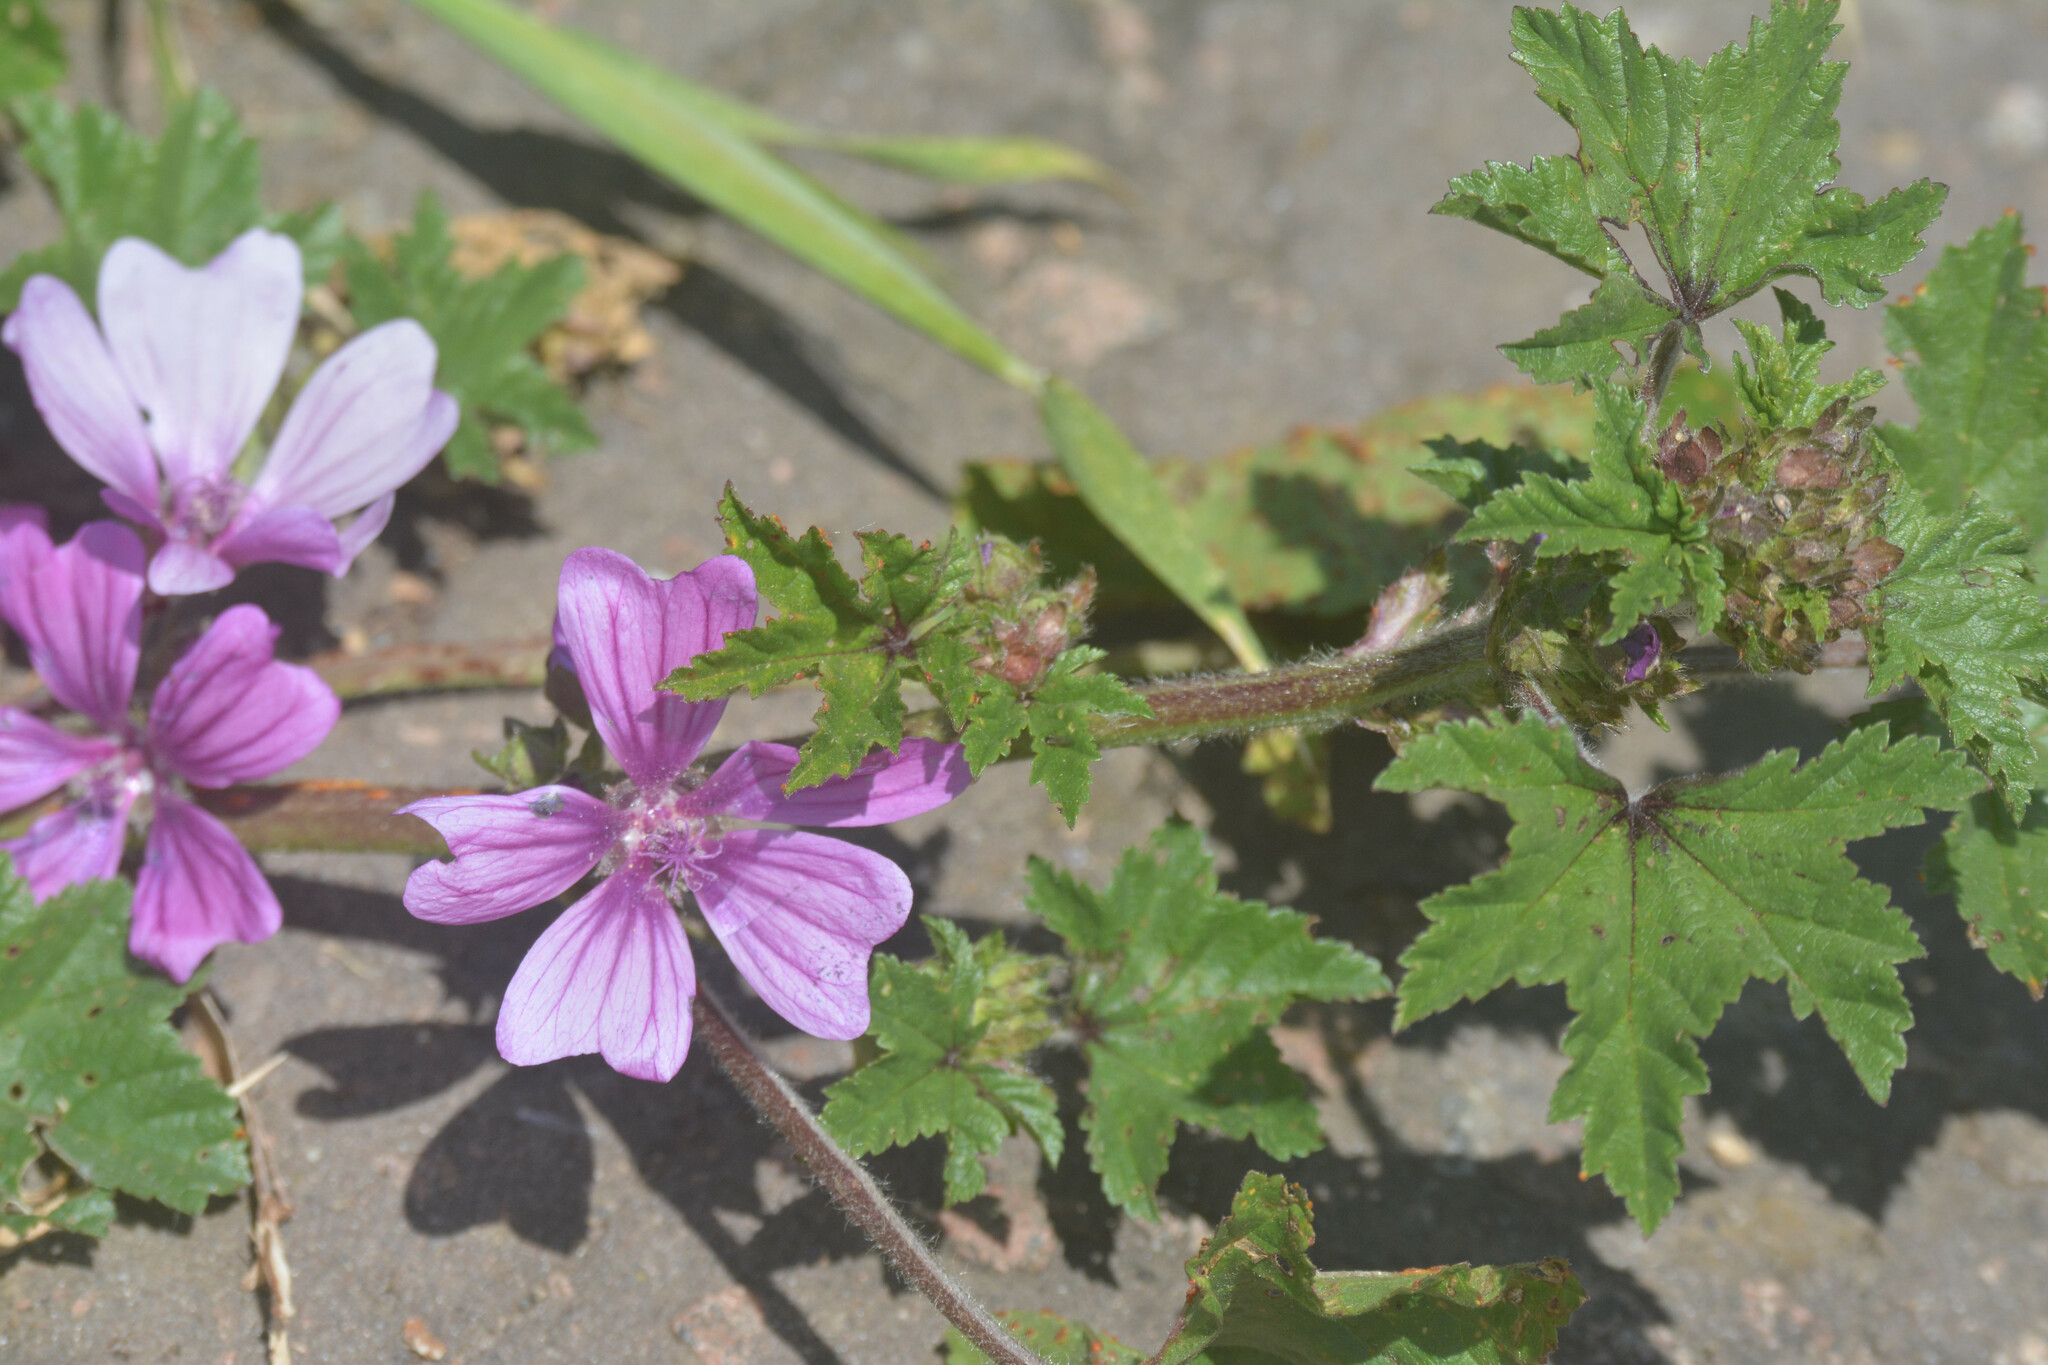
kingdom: Plantae
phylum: Tracheophyta
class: Magnoliopsida
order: Malvales
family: Malvaceae
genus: Malva
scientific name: Malva sylvestris
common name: Common mallow
